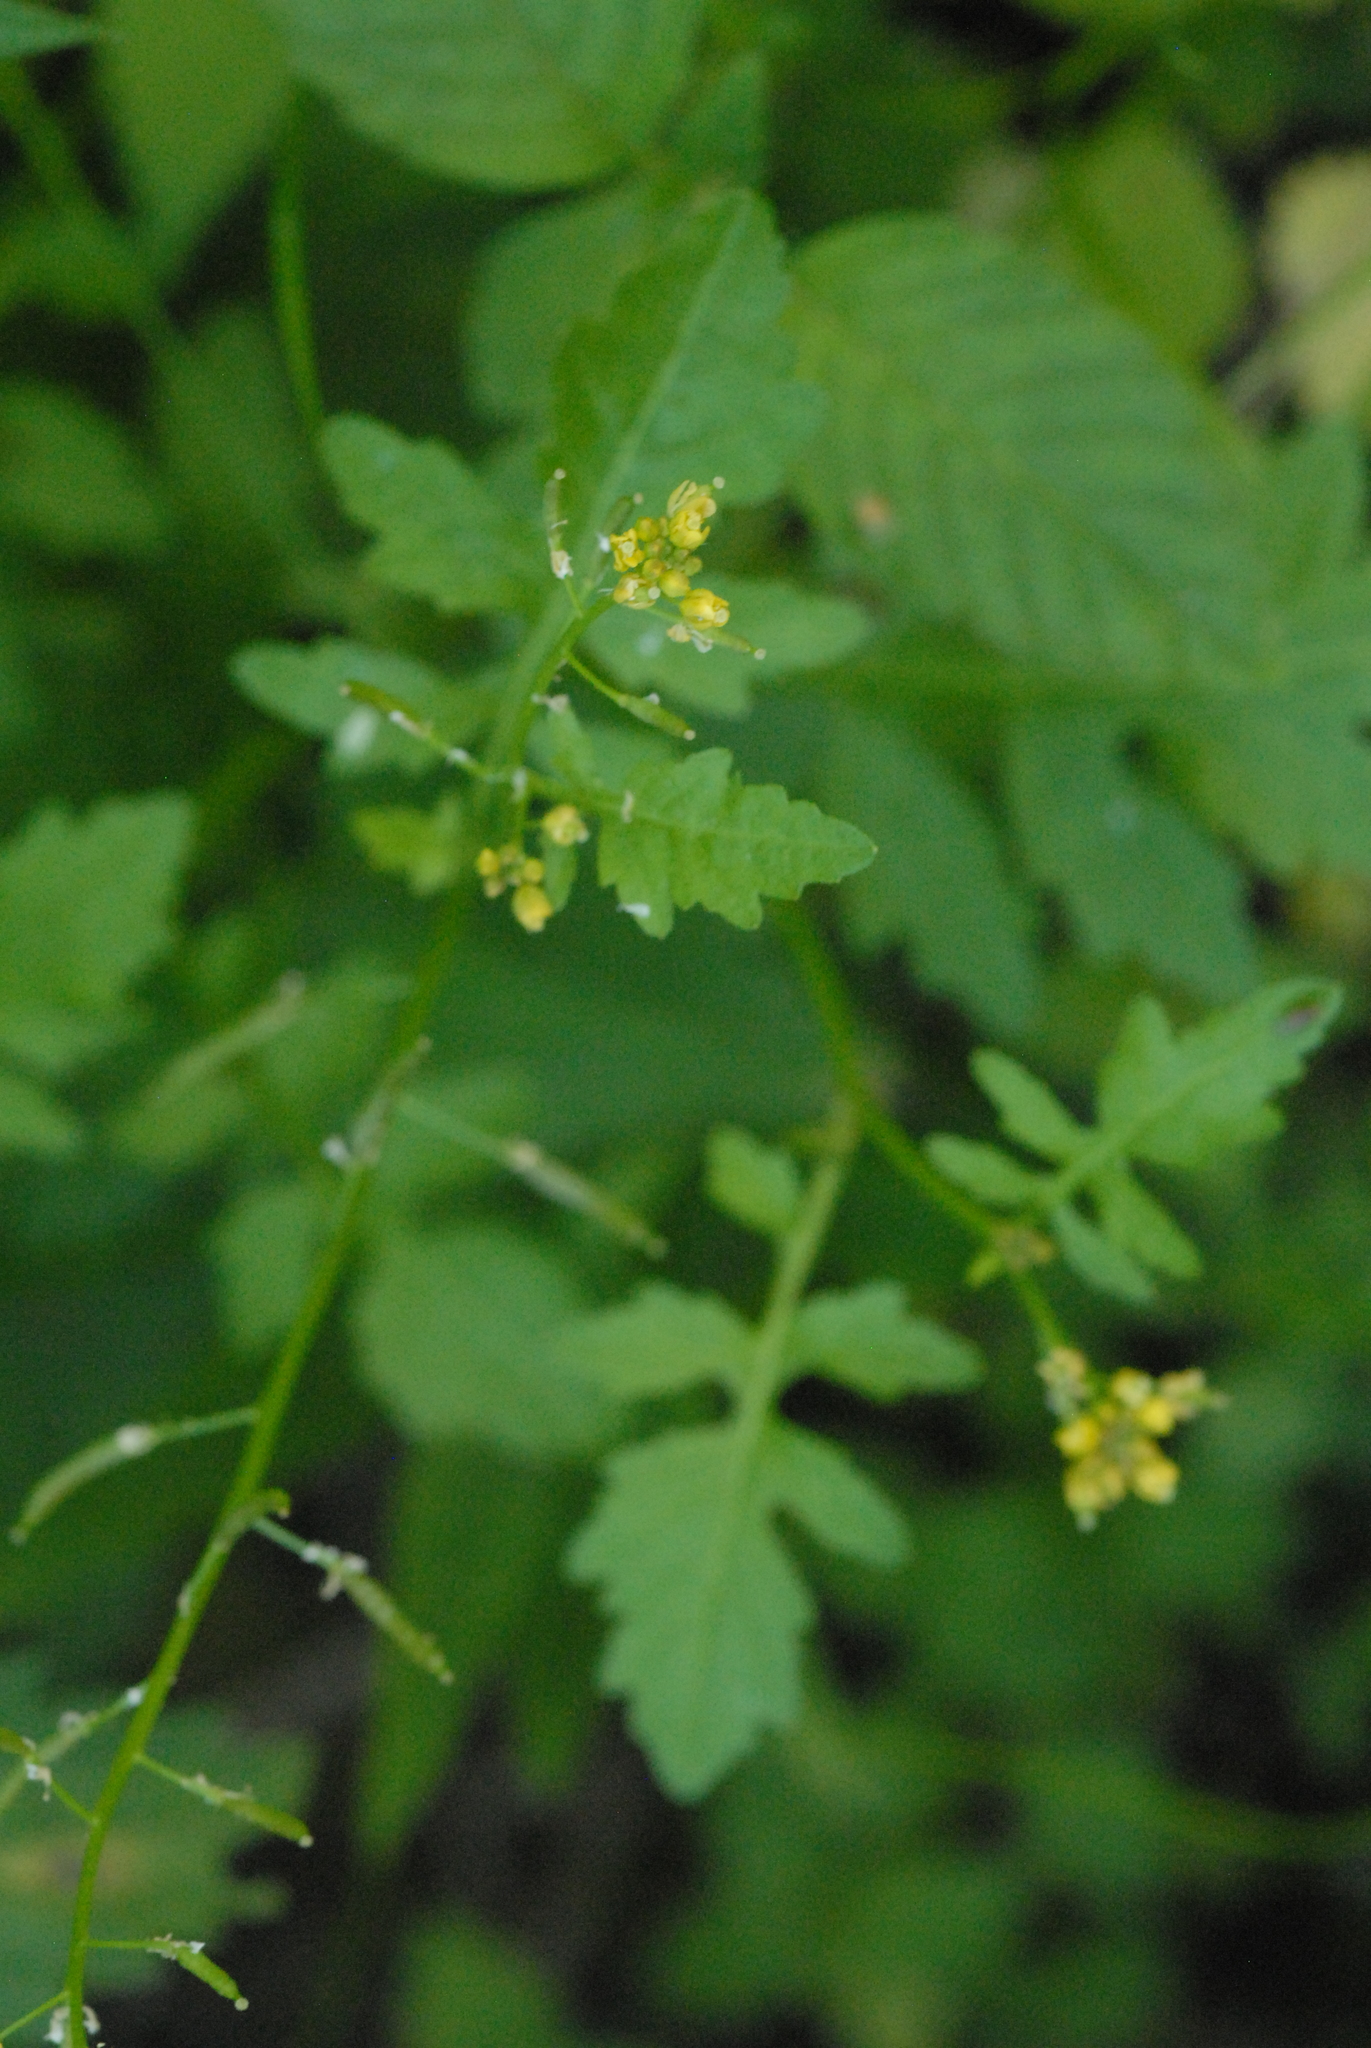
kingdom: Plantae
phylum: Tracheophyta
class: Magnoliopsida
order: Brassicales
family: Brassicaceae
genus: Rorippa
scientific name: Rorippa palustris
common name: Marsh yellow-cress
